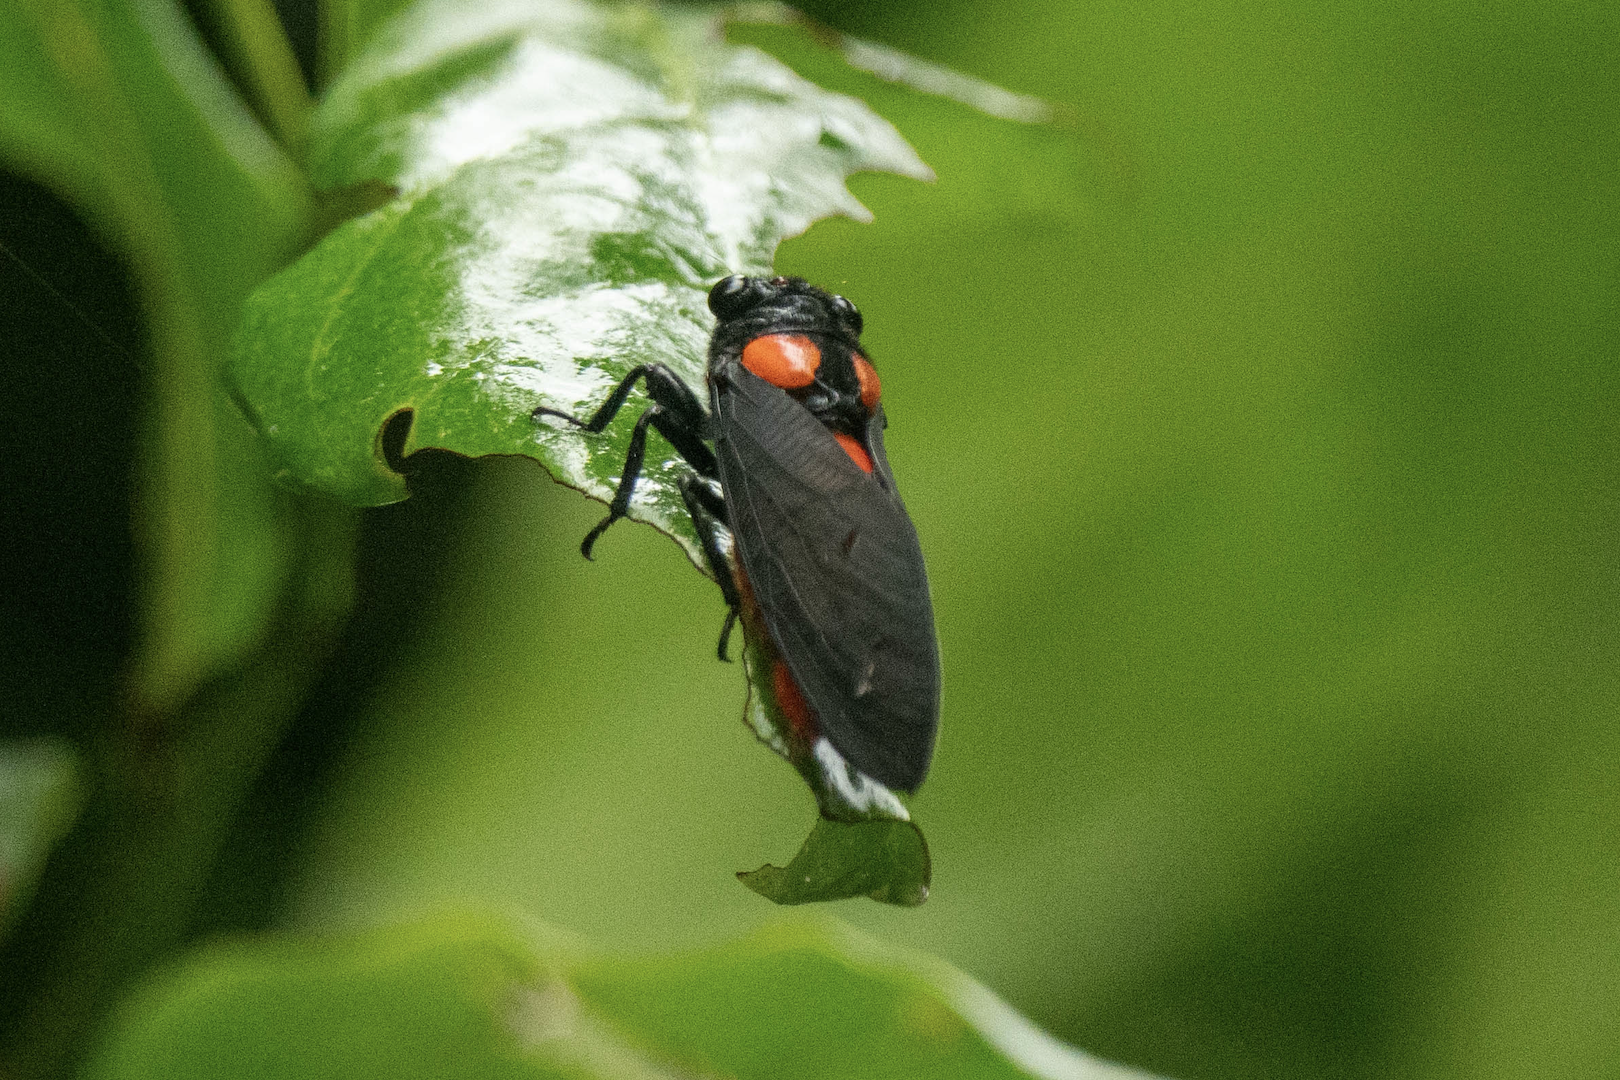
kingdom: Animalia
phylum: Arthropoda
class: Insecta
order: Hemiptera
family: Cicadidae
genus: Huechys
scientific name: Huechys sanguinea
